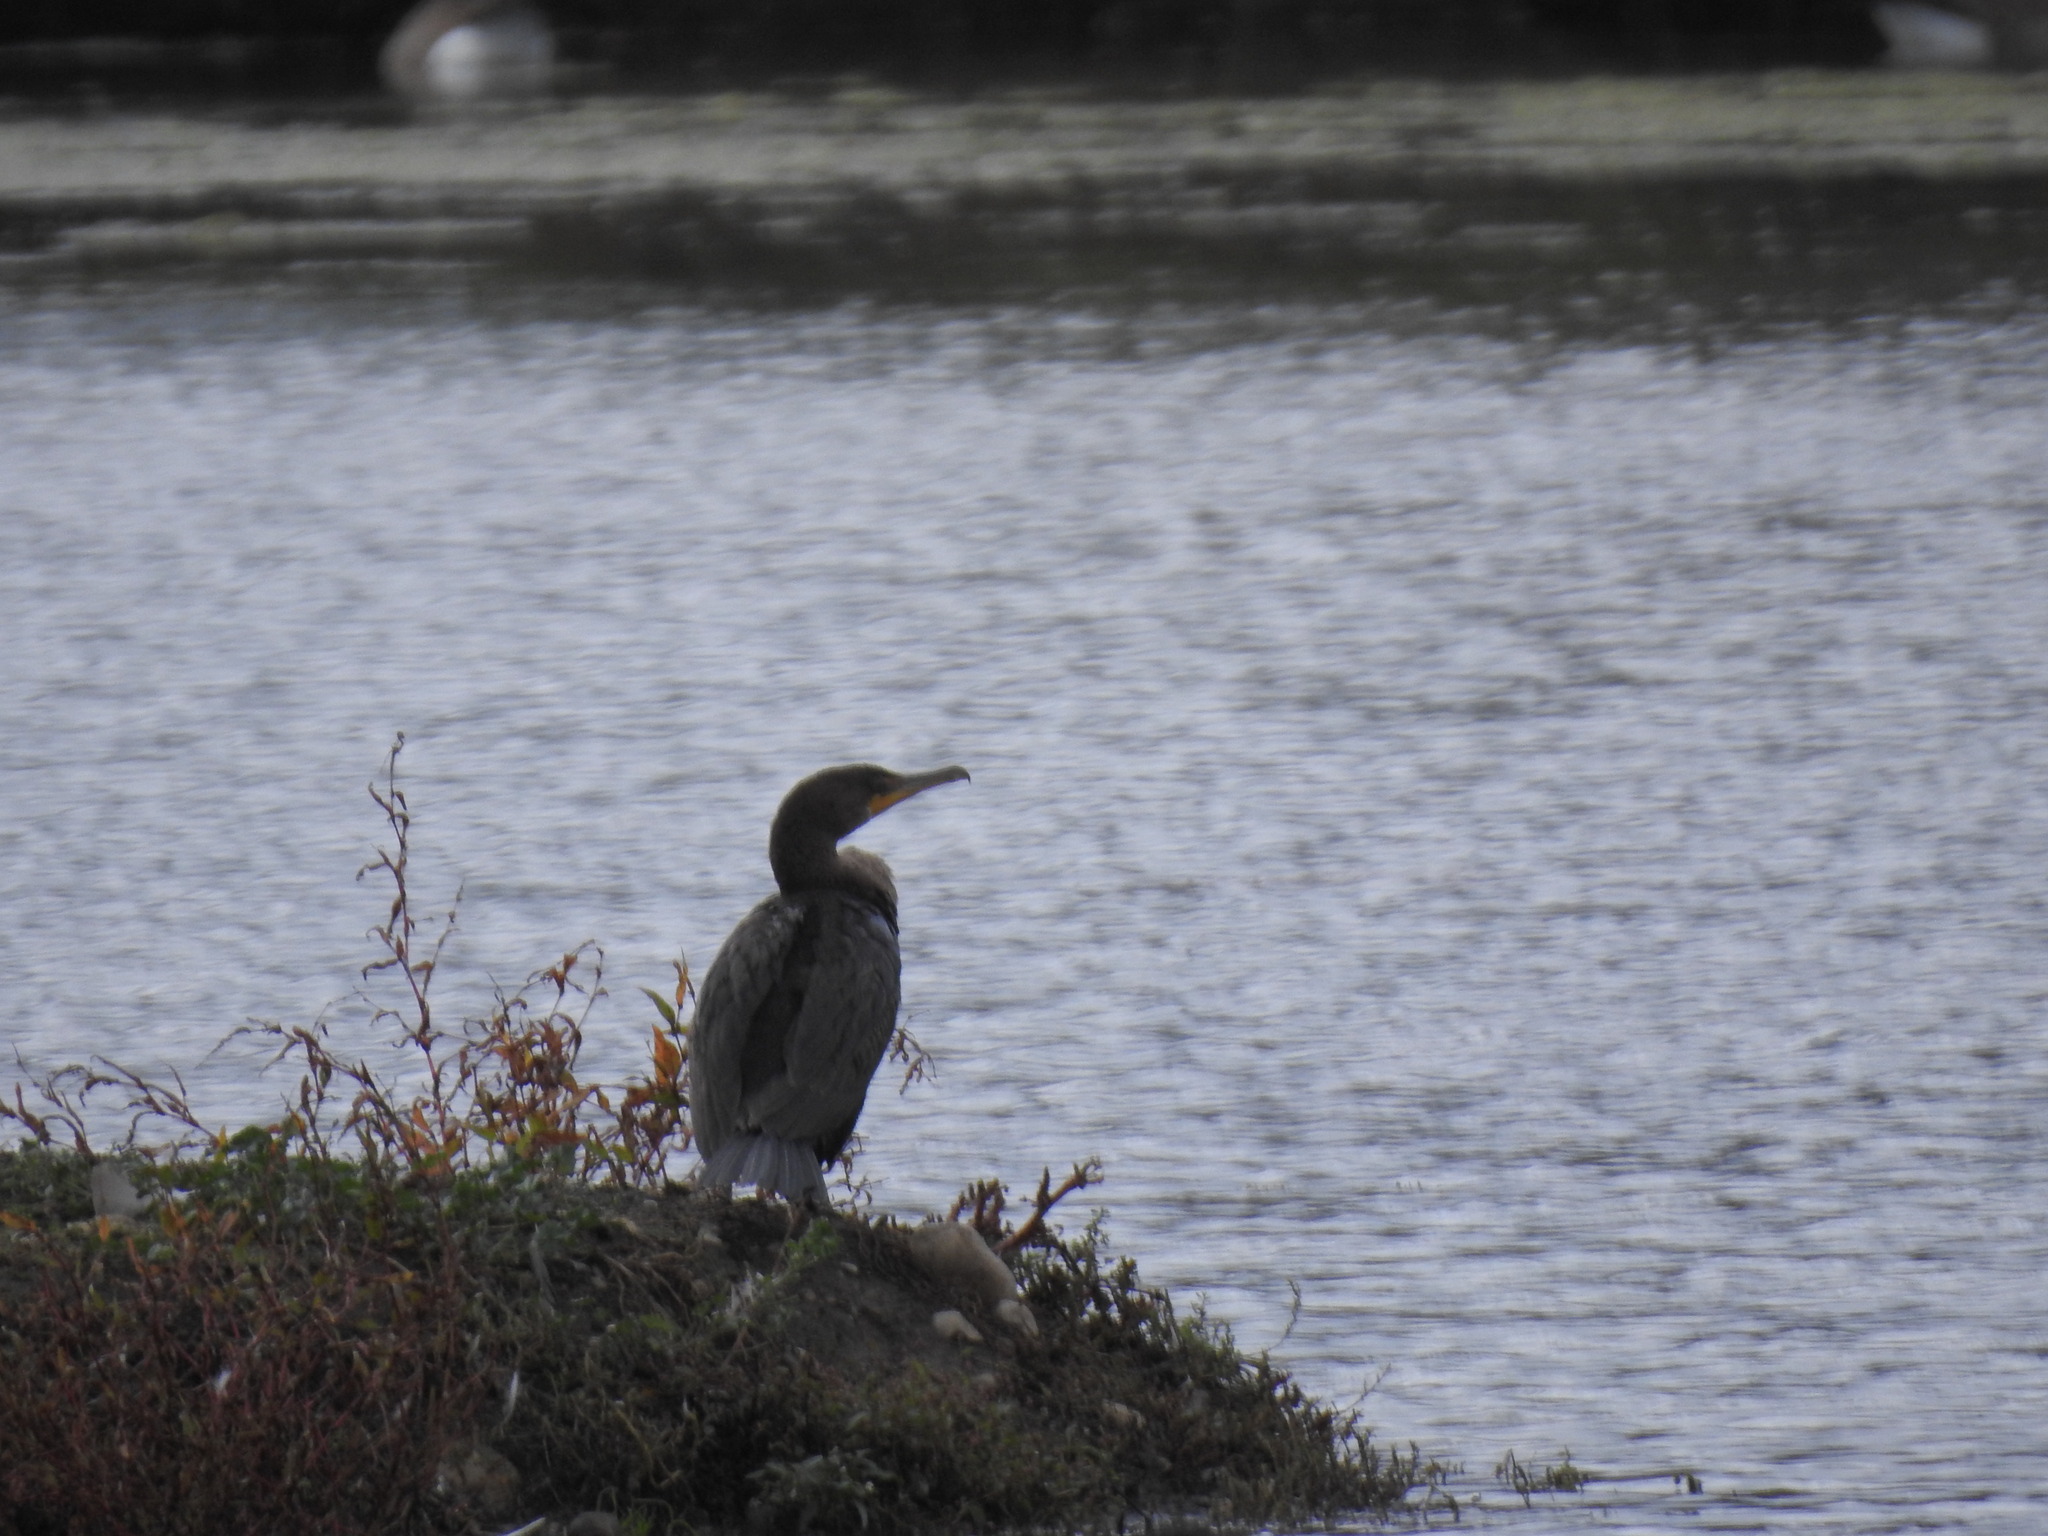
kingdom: Animalia
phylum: Chordata
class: Aves
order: Suliformes
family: Phalacrocoracidae
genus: Phalacrocorax
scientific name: Phalacrocorax auritus
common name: Double-crested cormorant
